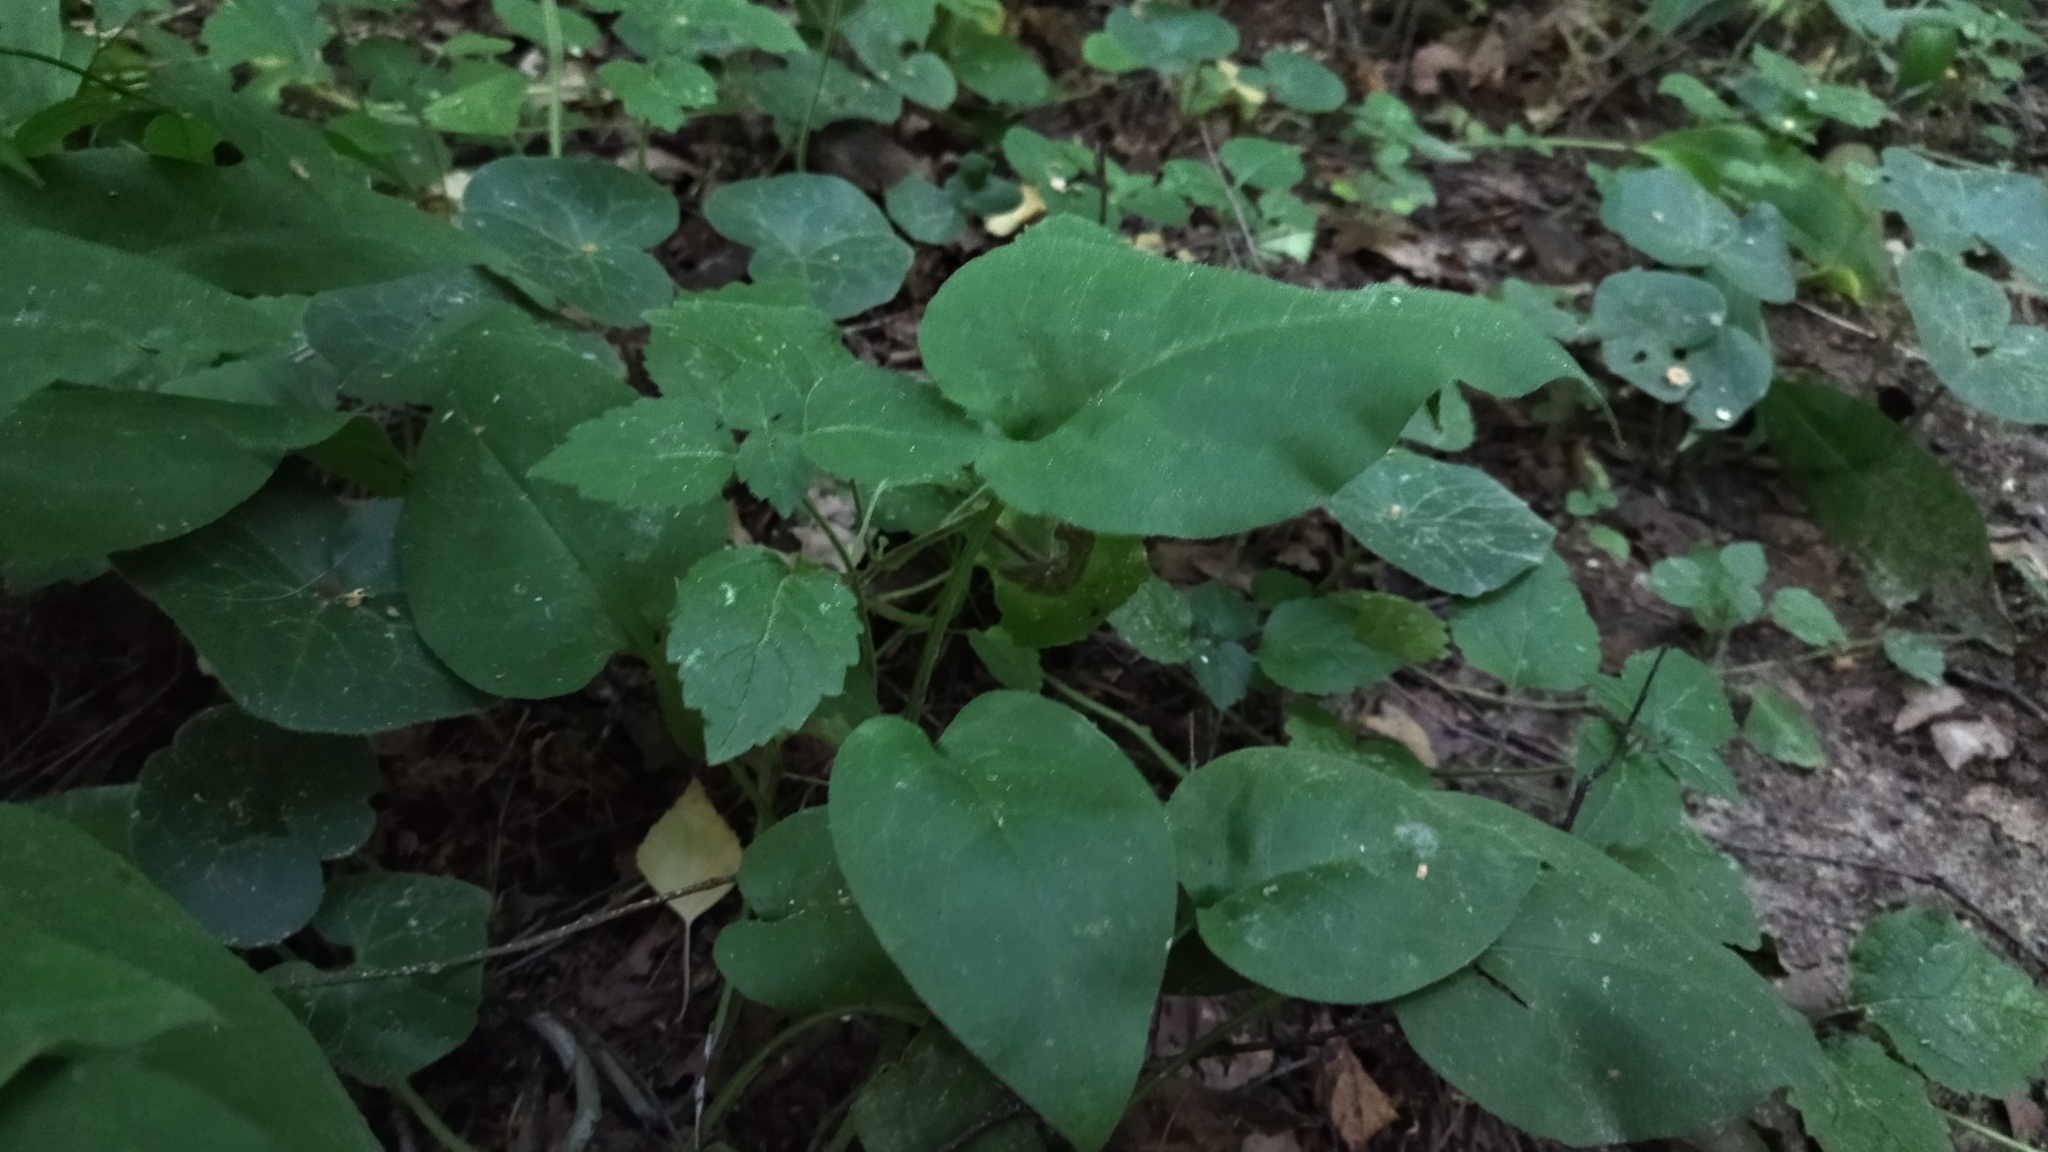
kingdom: Plantae
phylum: Tracheophyta
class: Magnoliopsida
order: Boraginales
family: Boraginaceae
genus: Pulmonaria
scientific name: Pulmonaria obscura
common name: Suffolk lungwort
